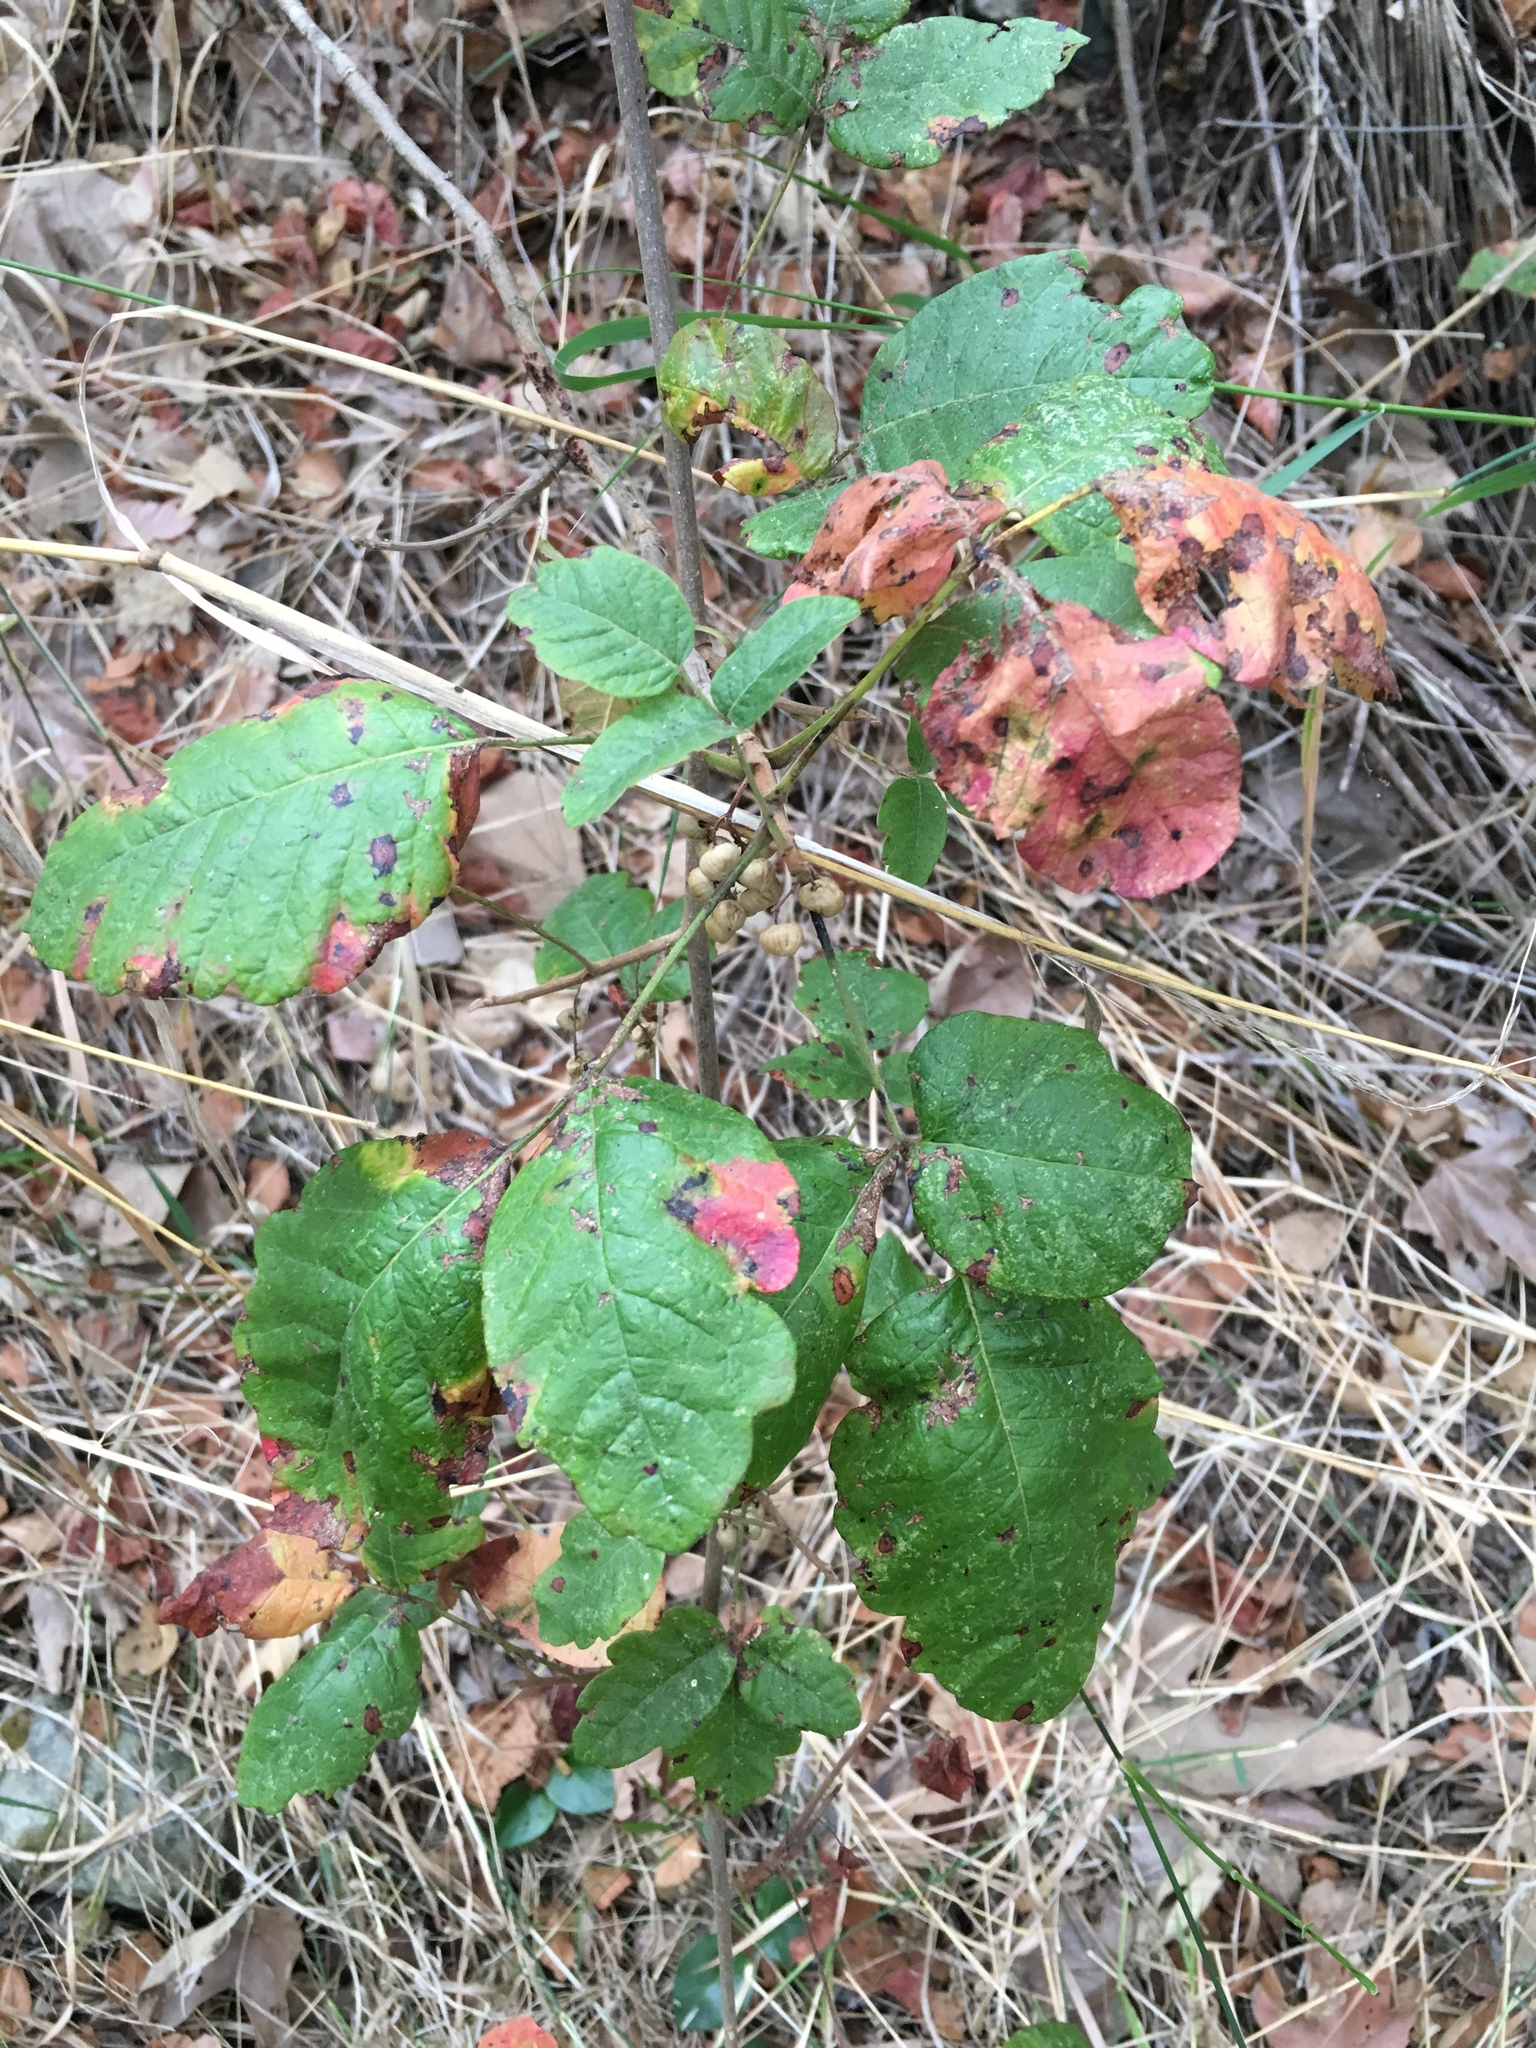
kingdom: Plantae
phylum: Tracheophyta
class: Magnoliopsida
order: Sapindales
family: Anacardiaceae
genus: Toxicodendron
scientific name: Toxicodendron diversilobum
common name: Pacific poison-oak
